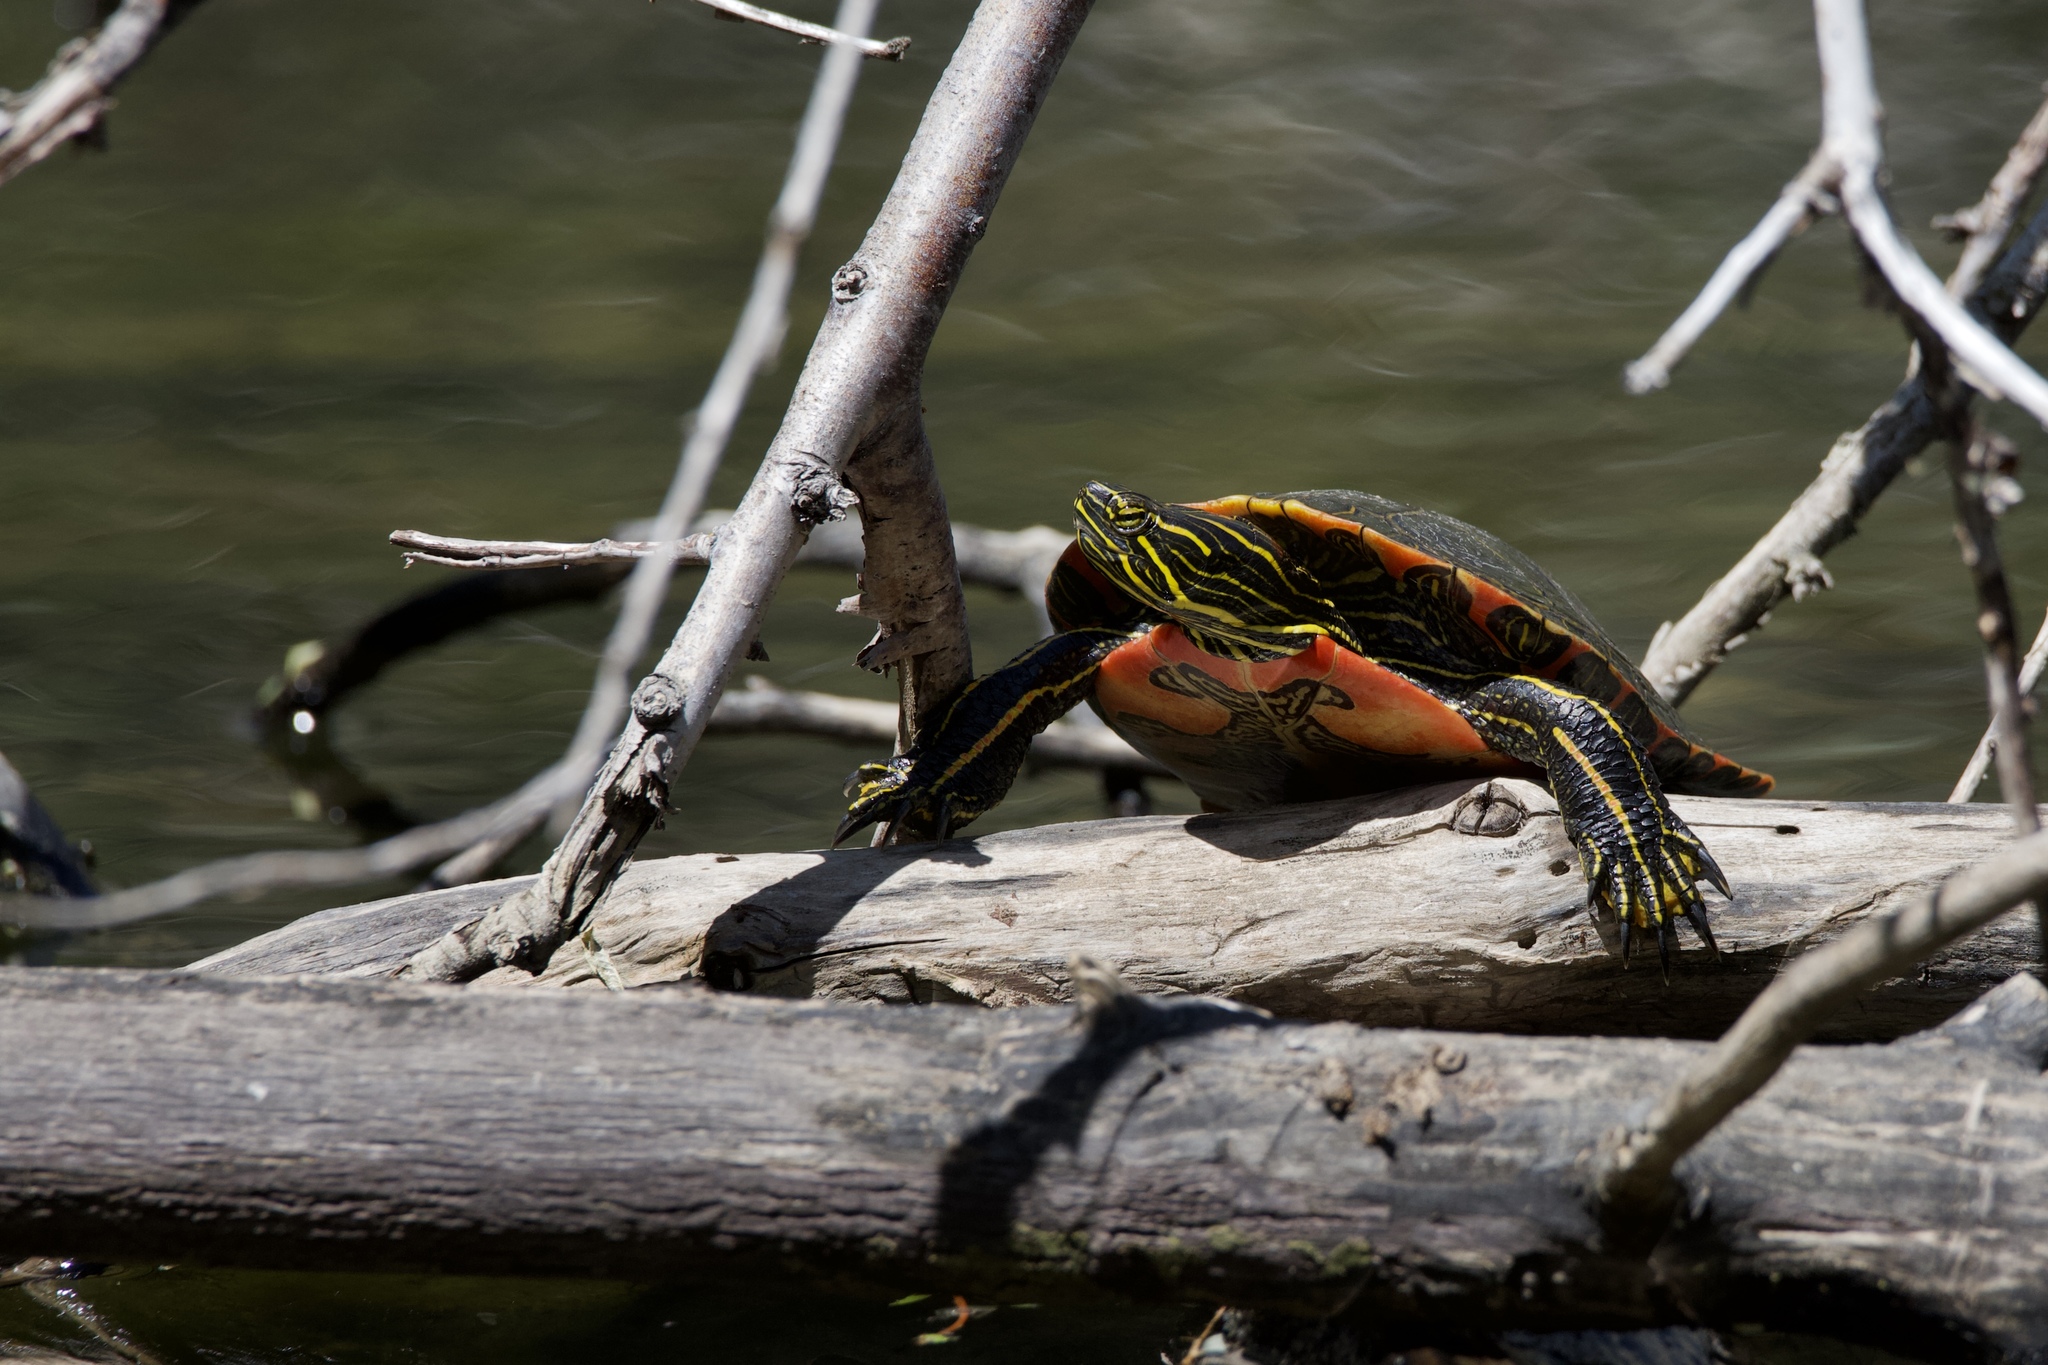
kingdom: Animalia
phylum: Chordata
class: Testudines
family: Emydidae
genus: Chrysemys
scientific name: Chrysemys picta
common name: Painted turtle
